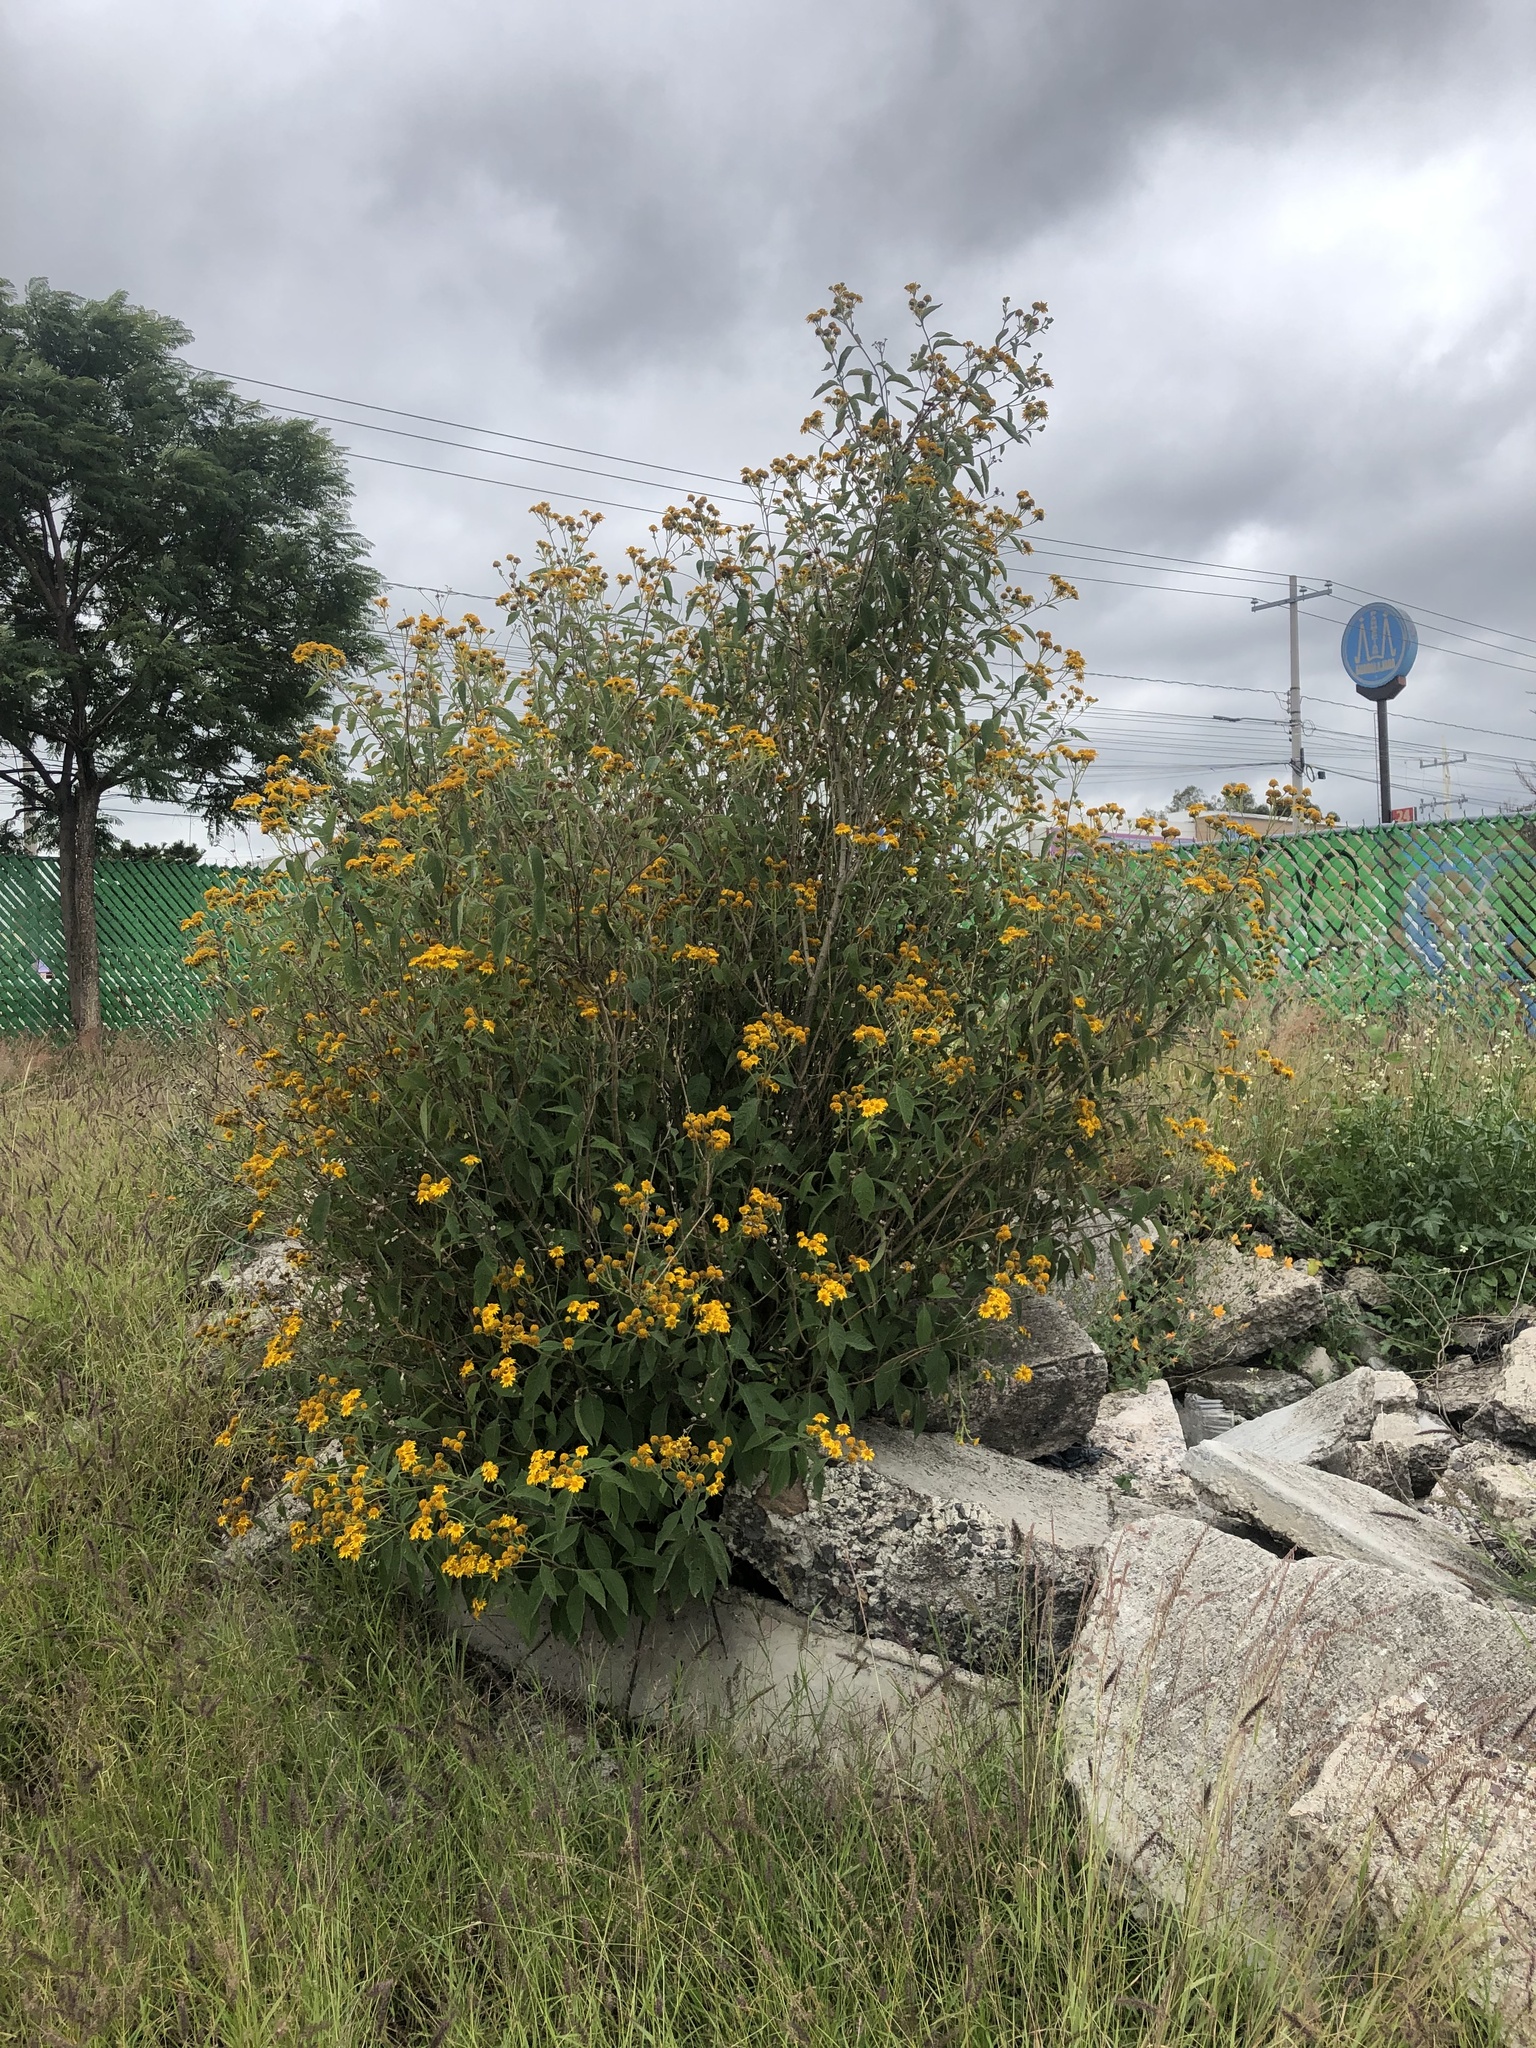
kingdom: Plantae
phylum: Tracheophyta
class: Magnoliopsida
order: Asterales
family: Asteraceae
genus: Verbesina
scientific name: Verbesina robinsonii
